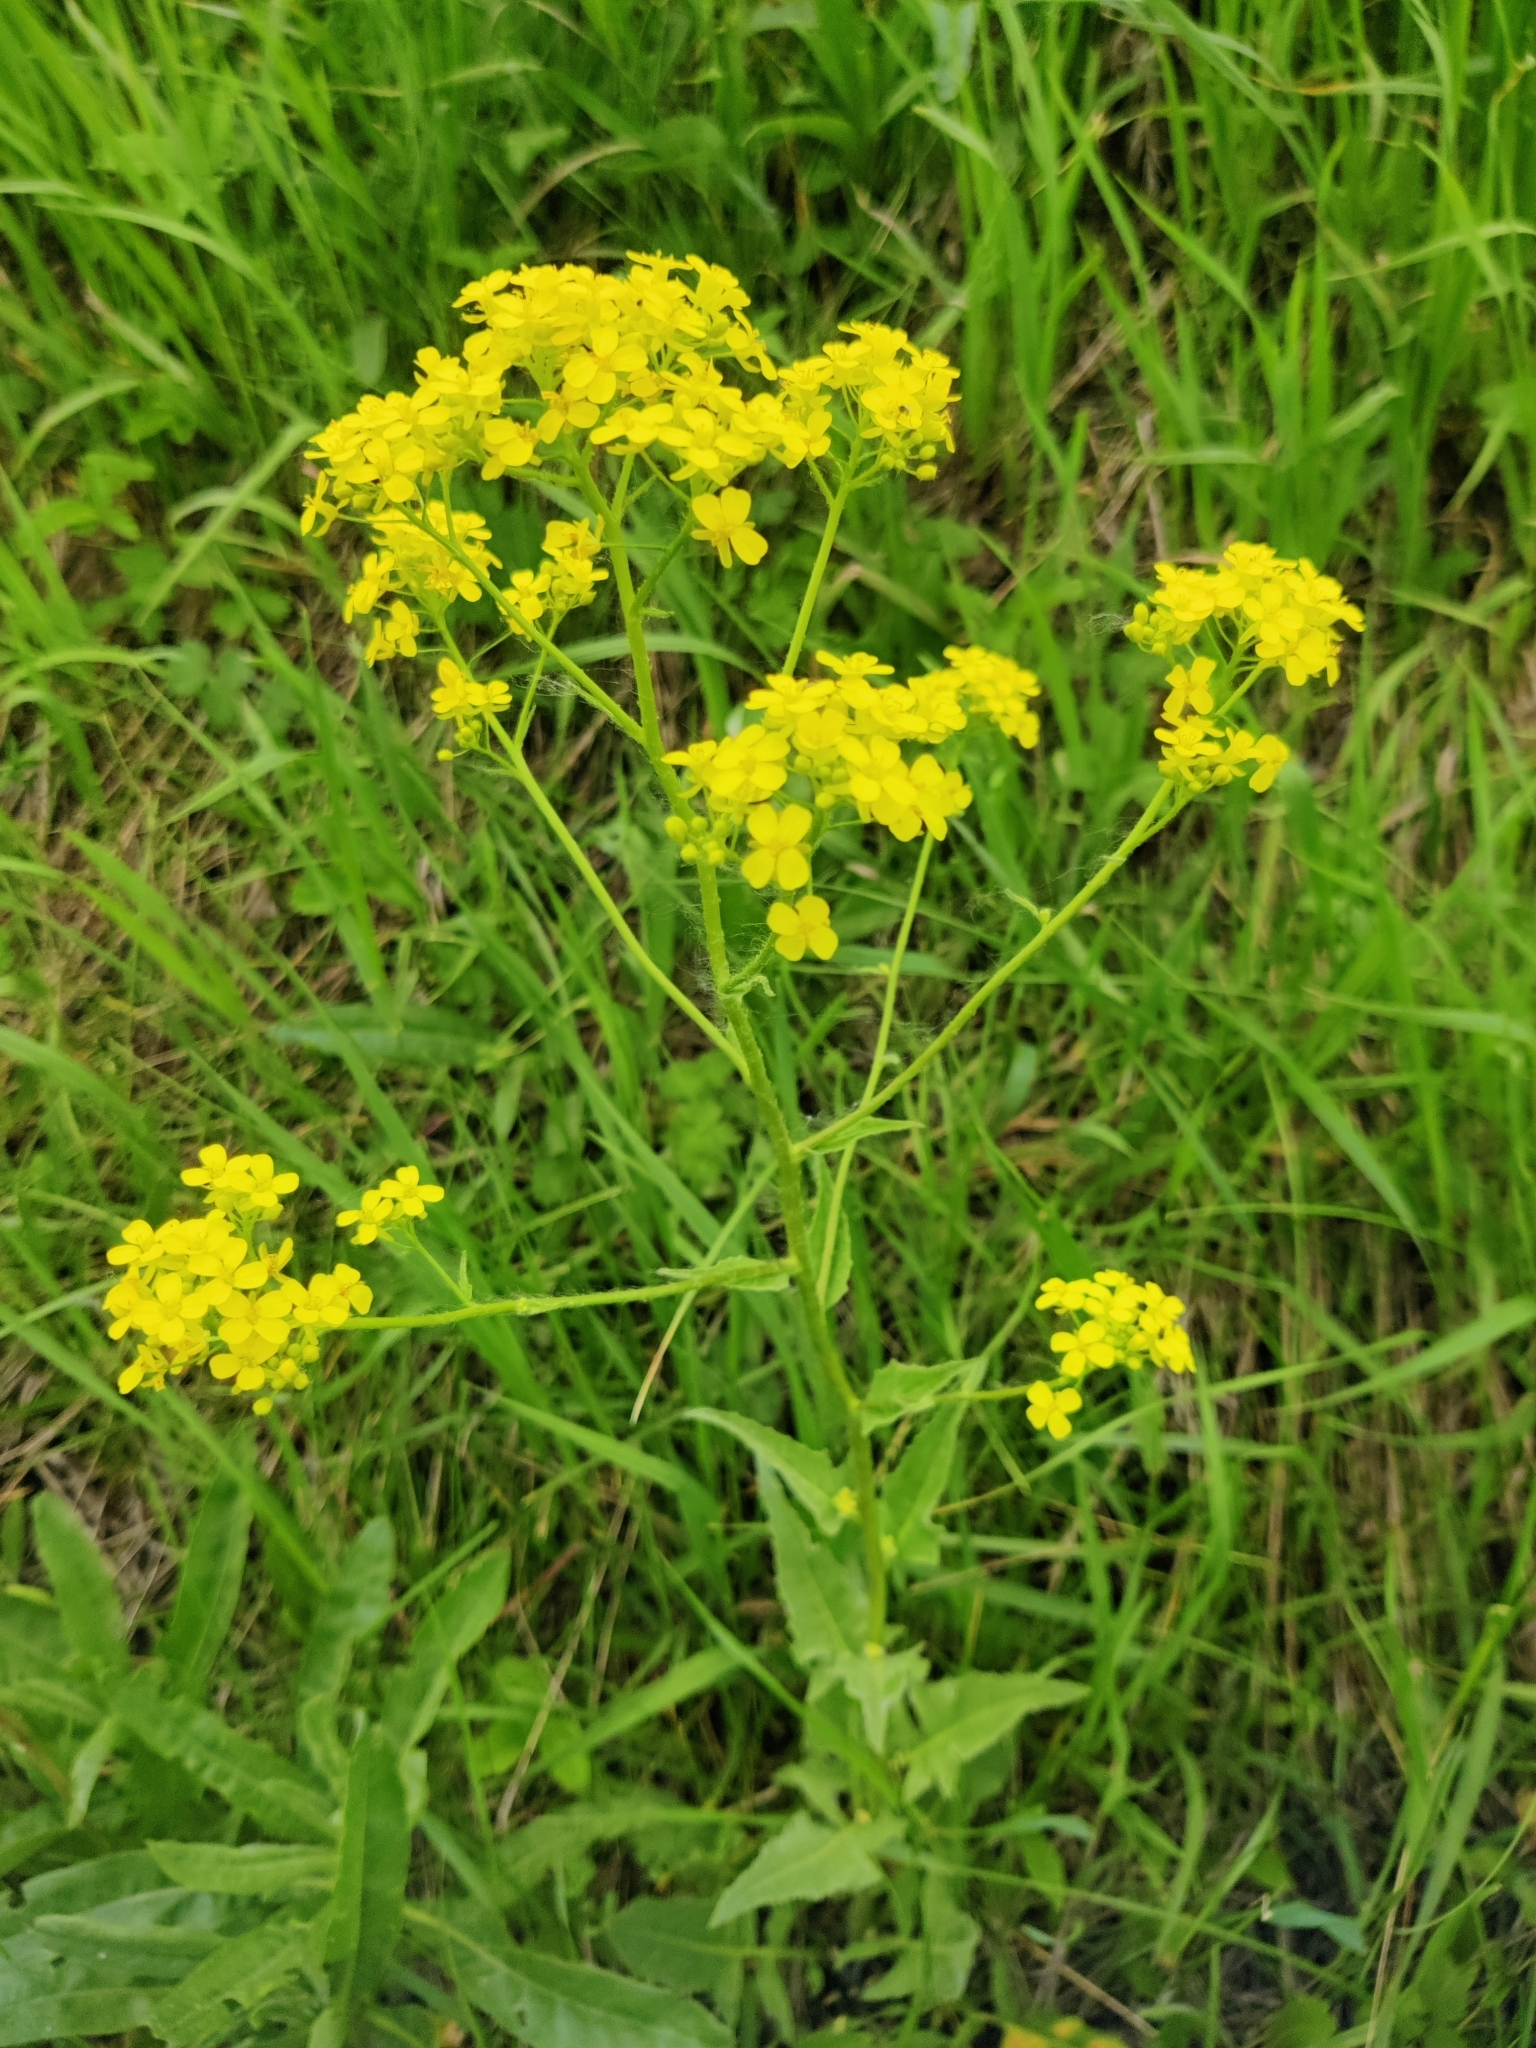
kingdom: Plantae
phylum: Tracheophyta
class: Magnoliopsida
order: Brassicales
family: Brassicaceae
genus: Bunias
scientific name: Bunias orientalis
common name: Warty-cabbage
